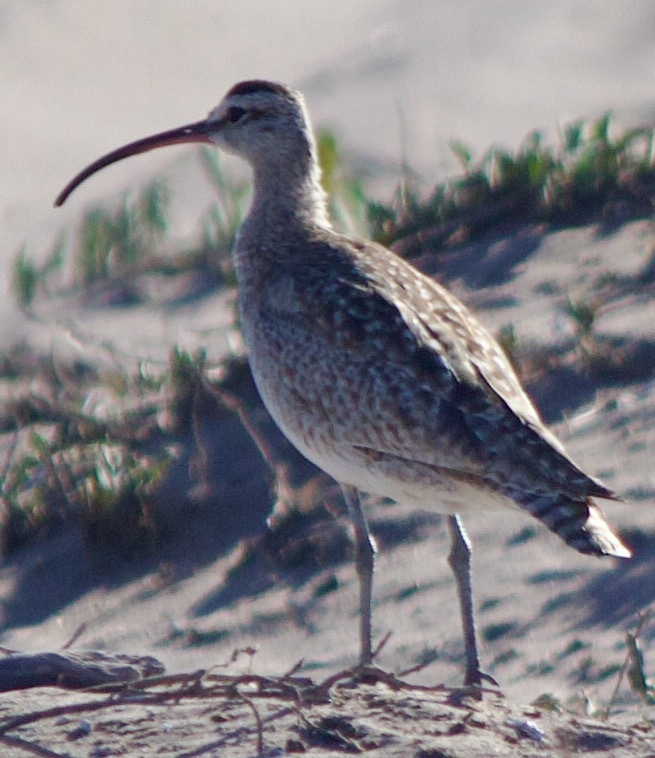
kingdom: Animalia
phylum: Chordata
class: Aves
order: Charadriiformes
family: Scolopacidae
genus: Numenius
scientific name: Numenius phaeopus
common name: Whimbrel
